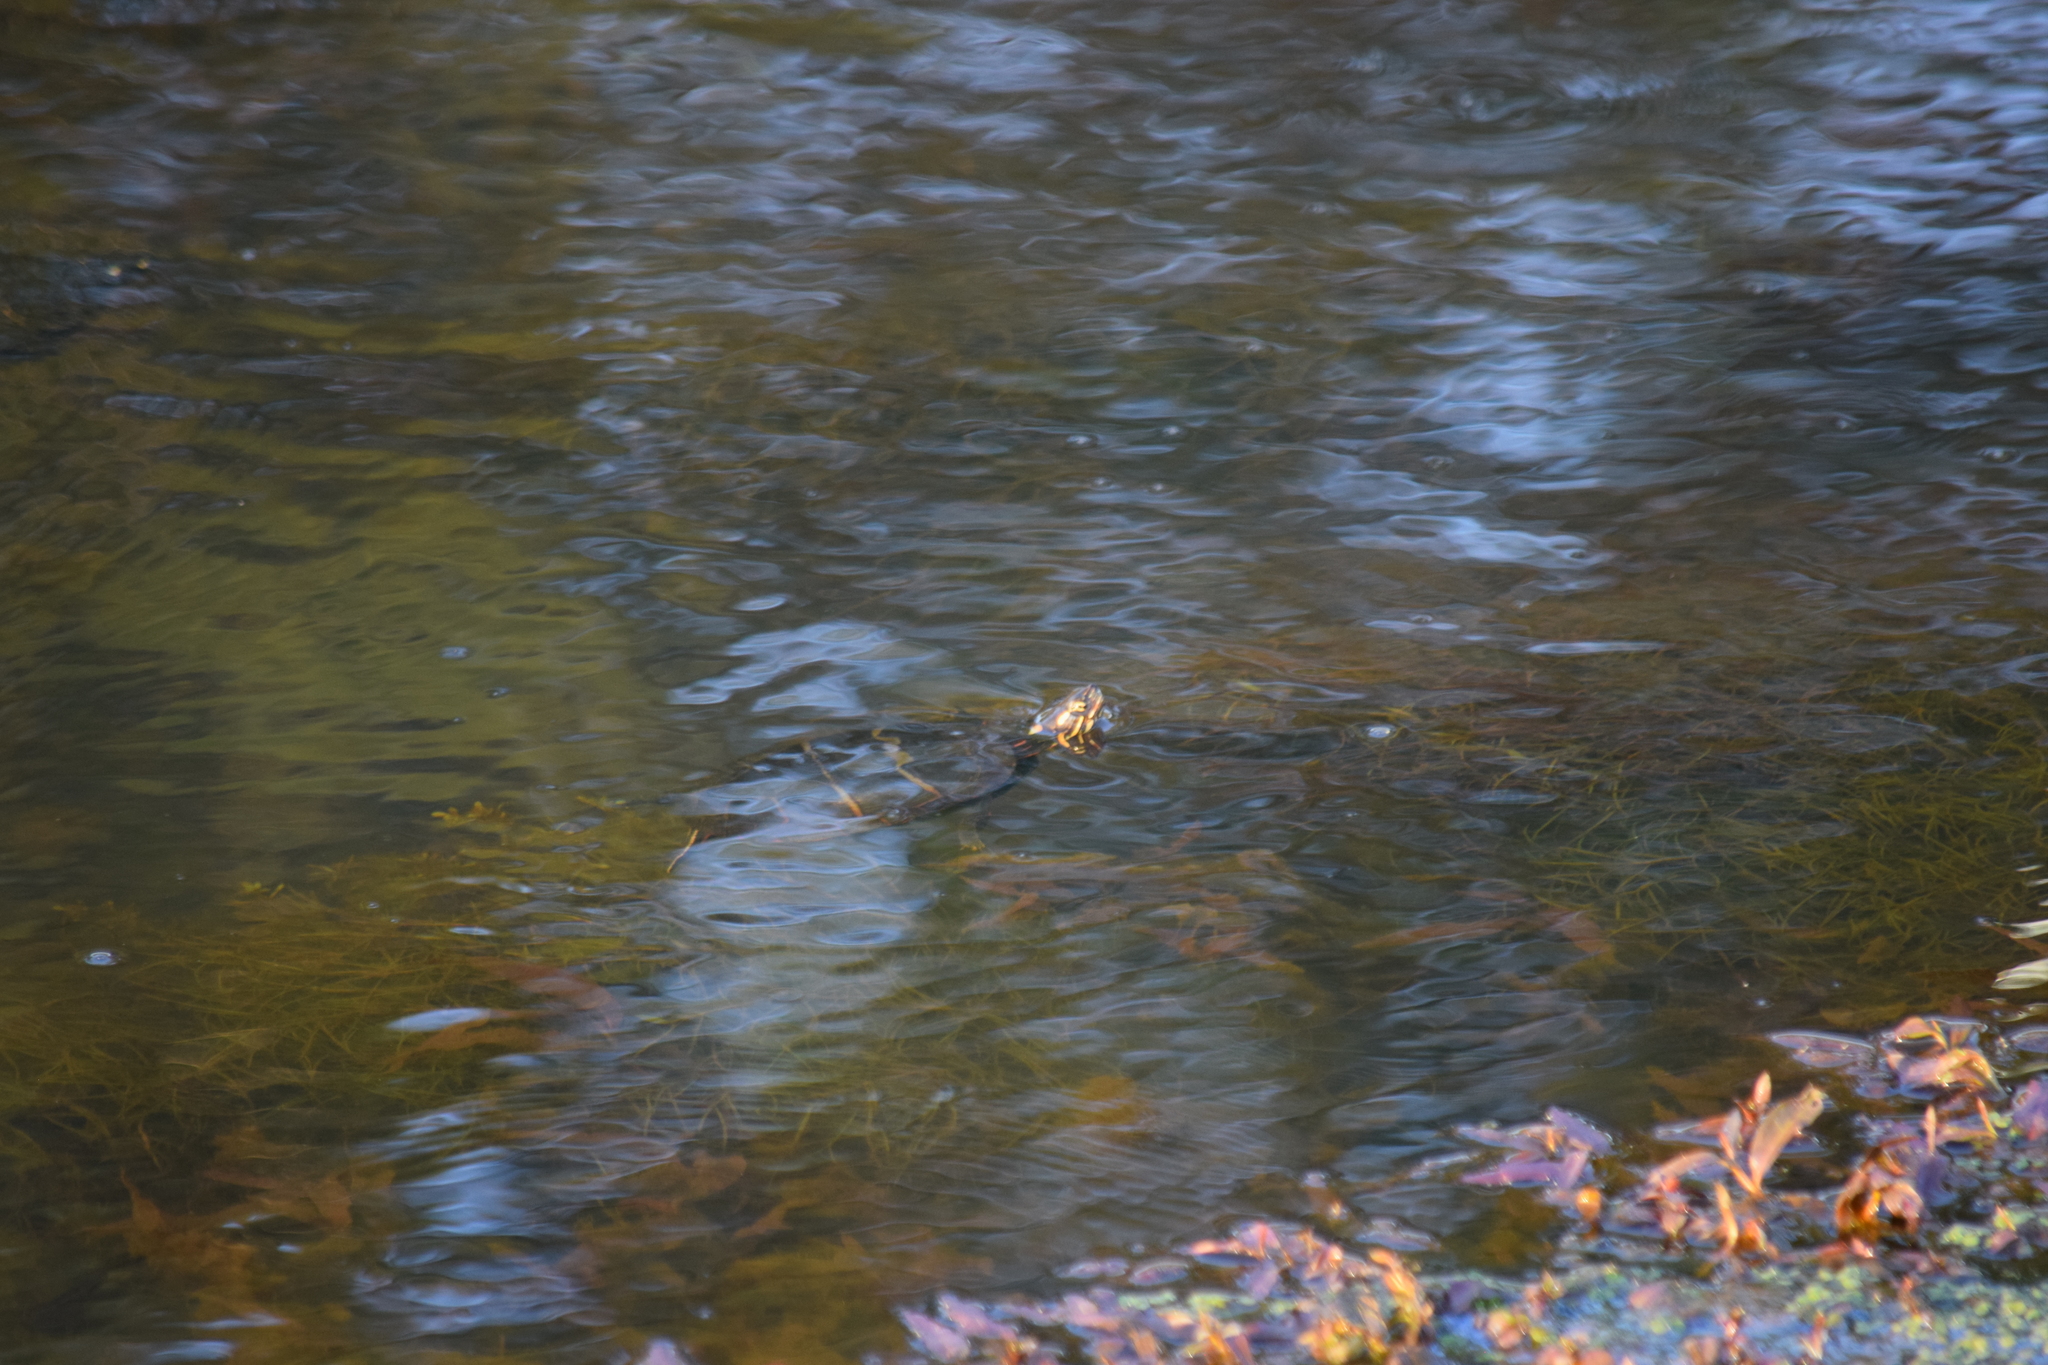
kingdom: Animalia
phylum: Chordata
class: Testudines
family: Emydidae
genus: Chrysemys
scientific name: Chrysemys picta
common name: Painted turtle
